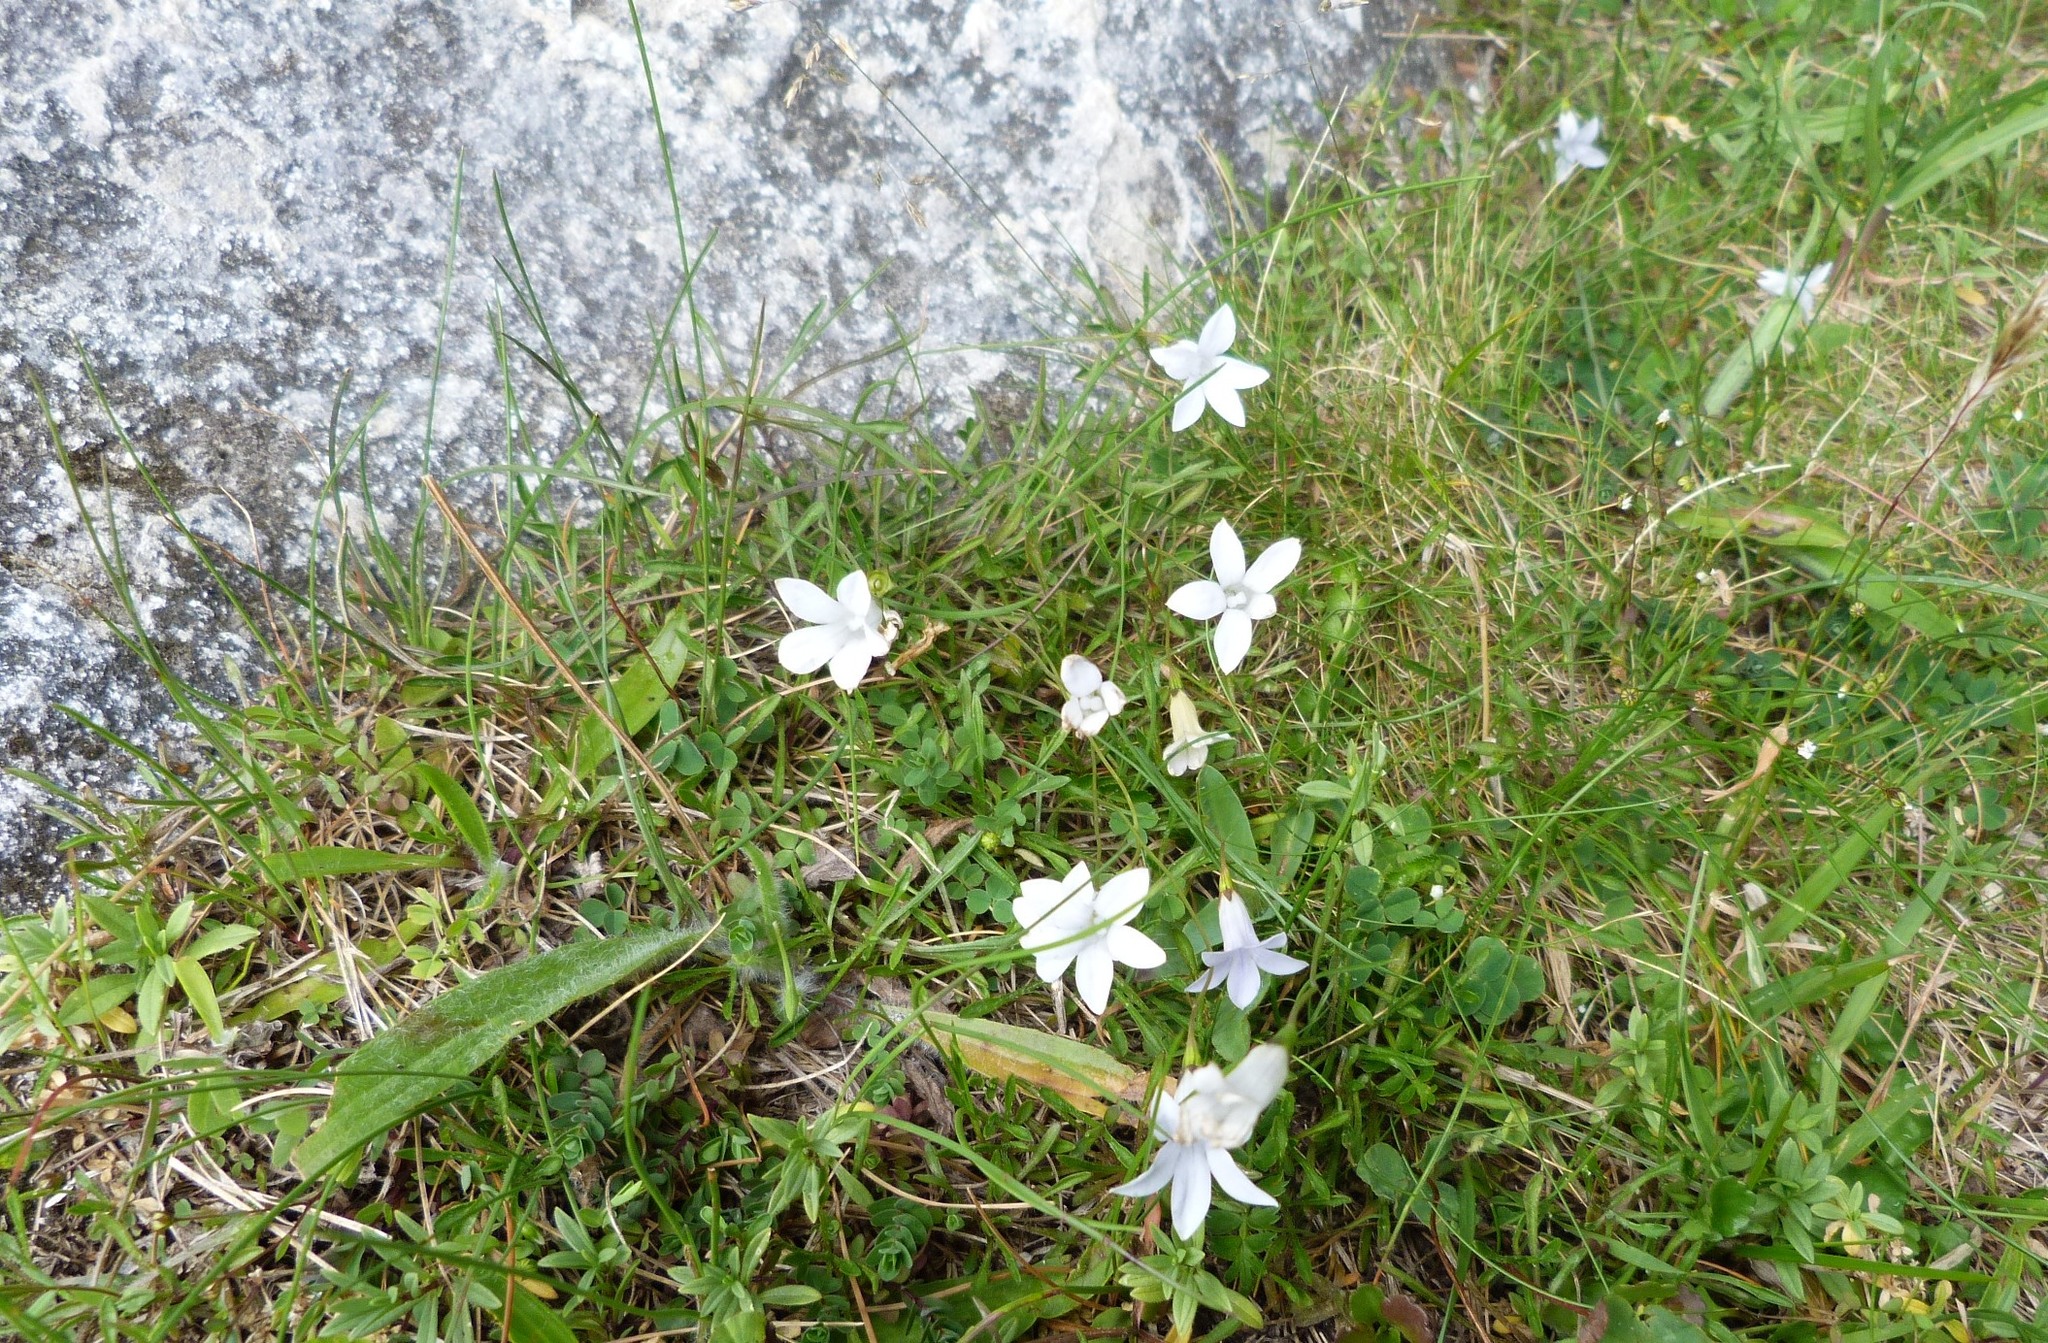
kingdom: Plantae
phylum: Tracheophyta
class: Magnoliopsida
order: Asterales
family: Campanulaceae
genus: Wahlenbergia
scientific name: Wahlenbergia albomarginata
